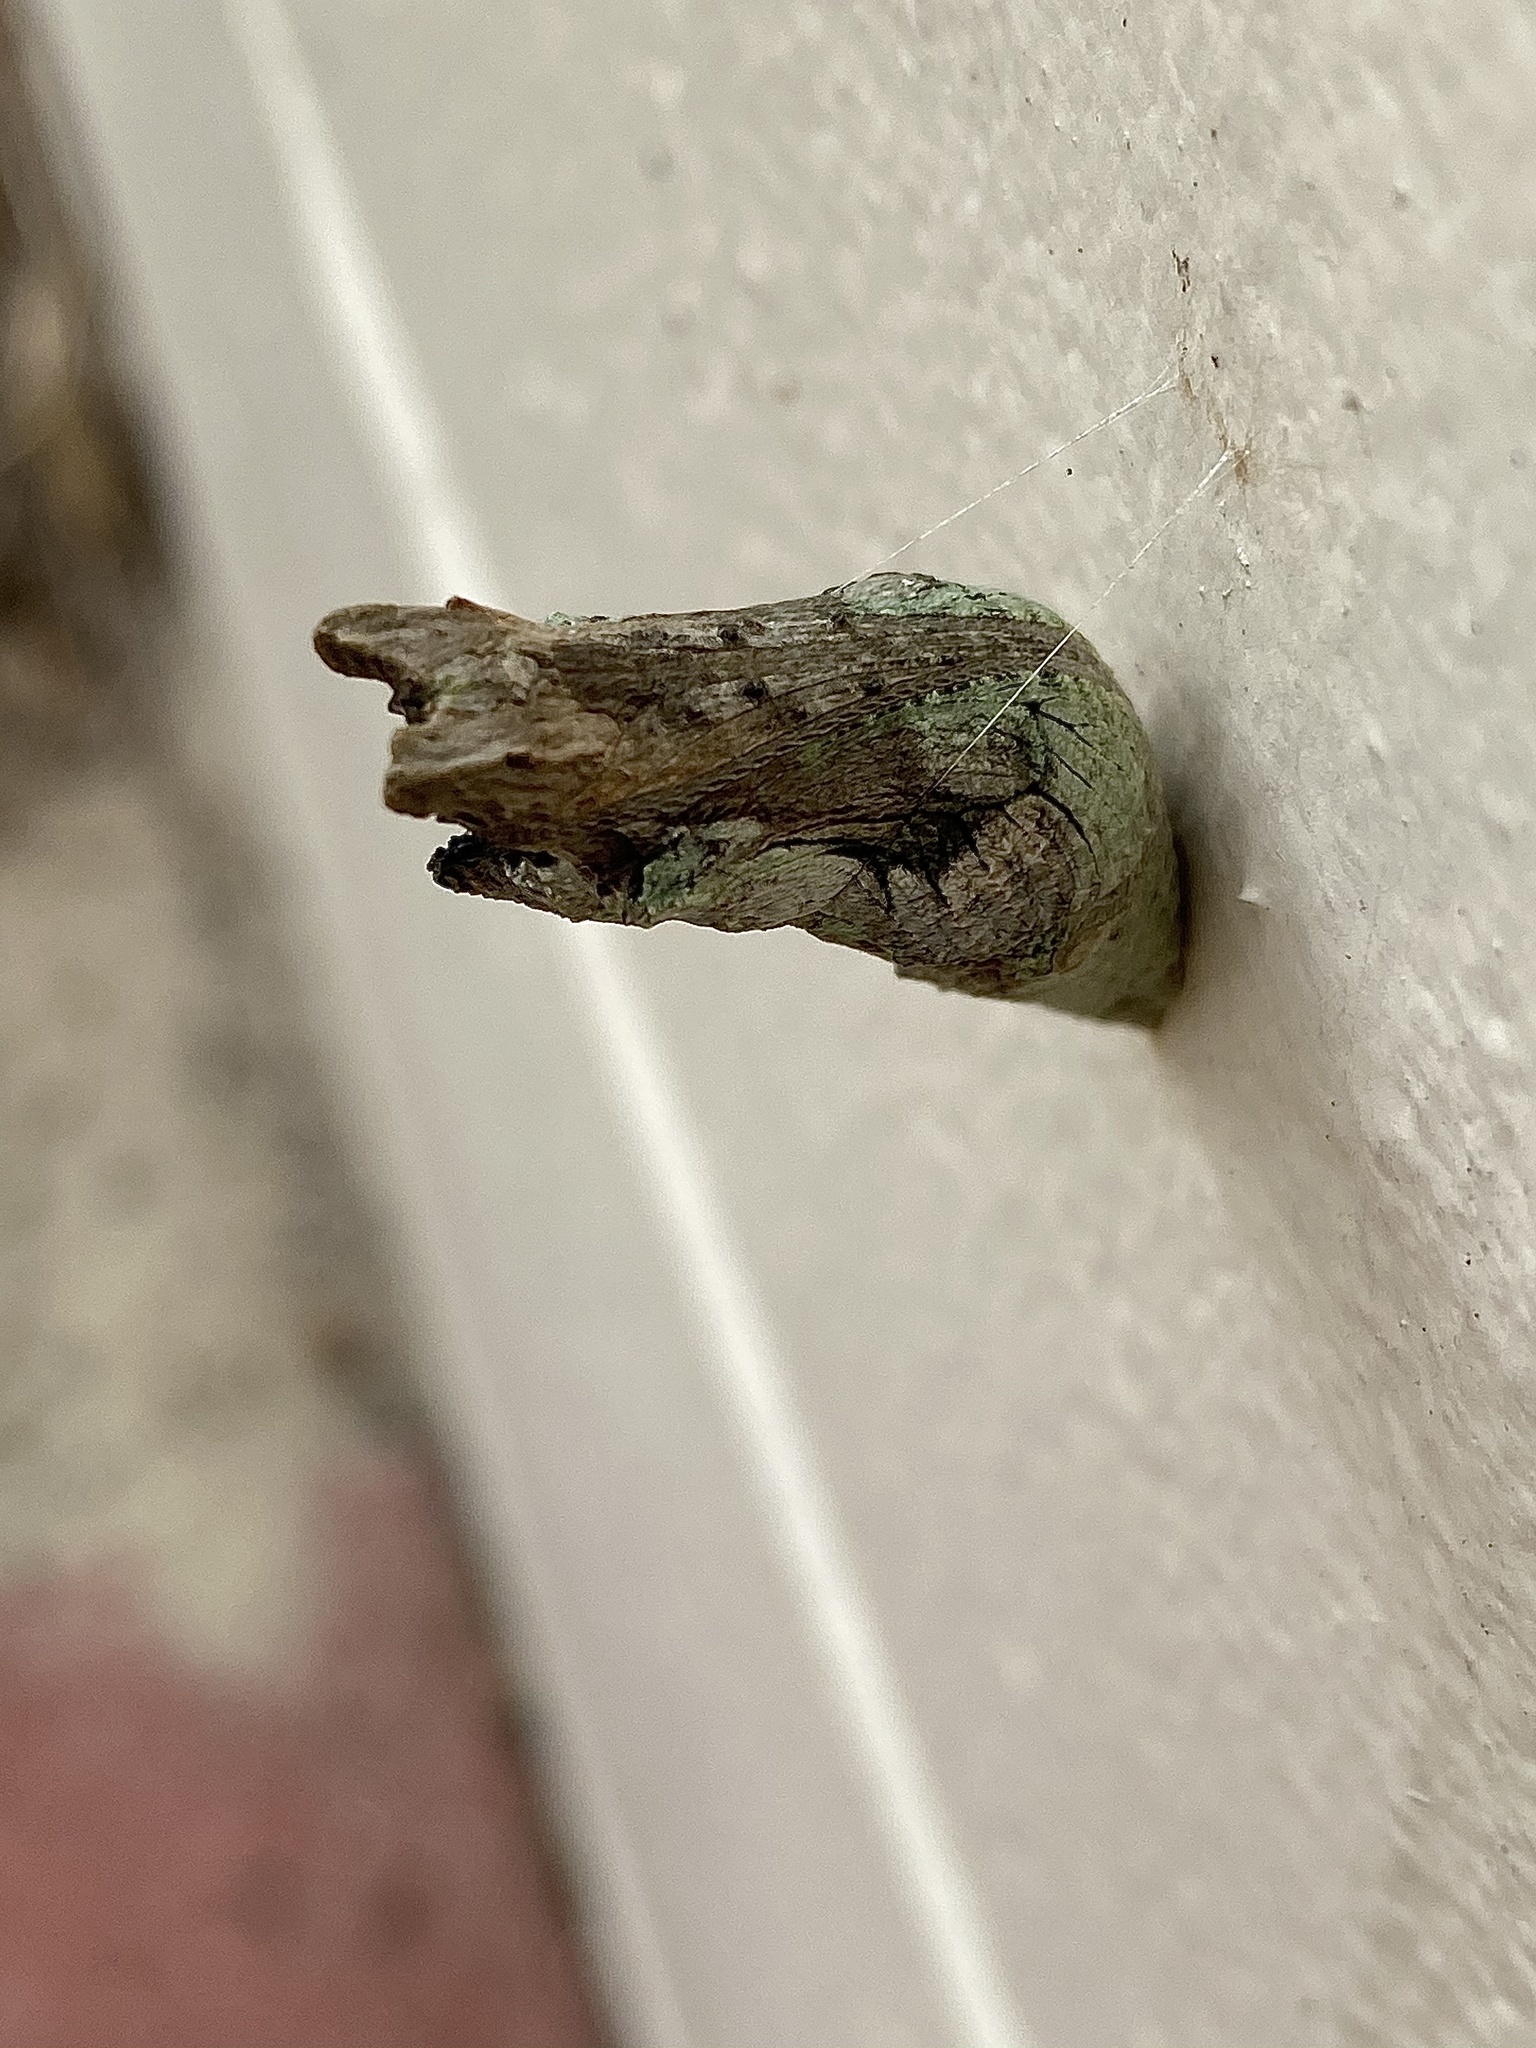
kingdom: Animalia
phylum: Arthropoda
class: Insecta
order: Lepidoptera
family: Papilionidae
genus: Papilio
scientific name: Papilio cresphontes
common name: Giant swallowtail
